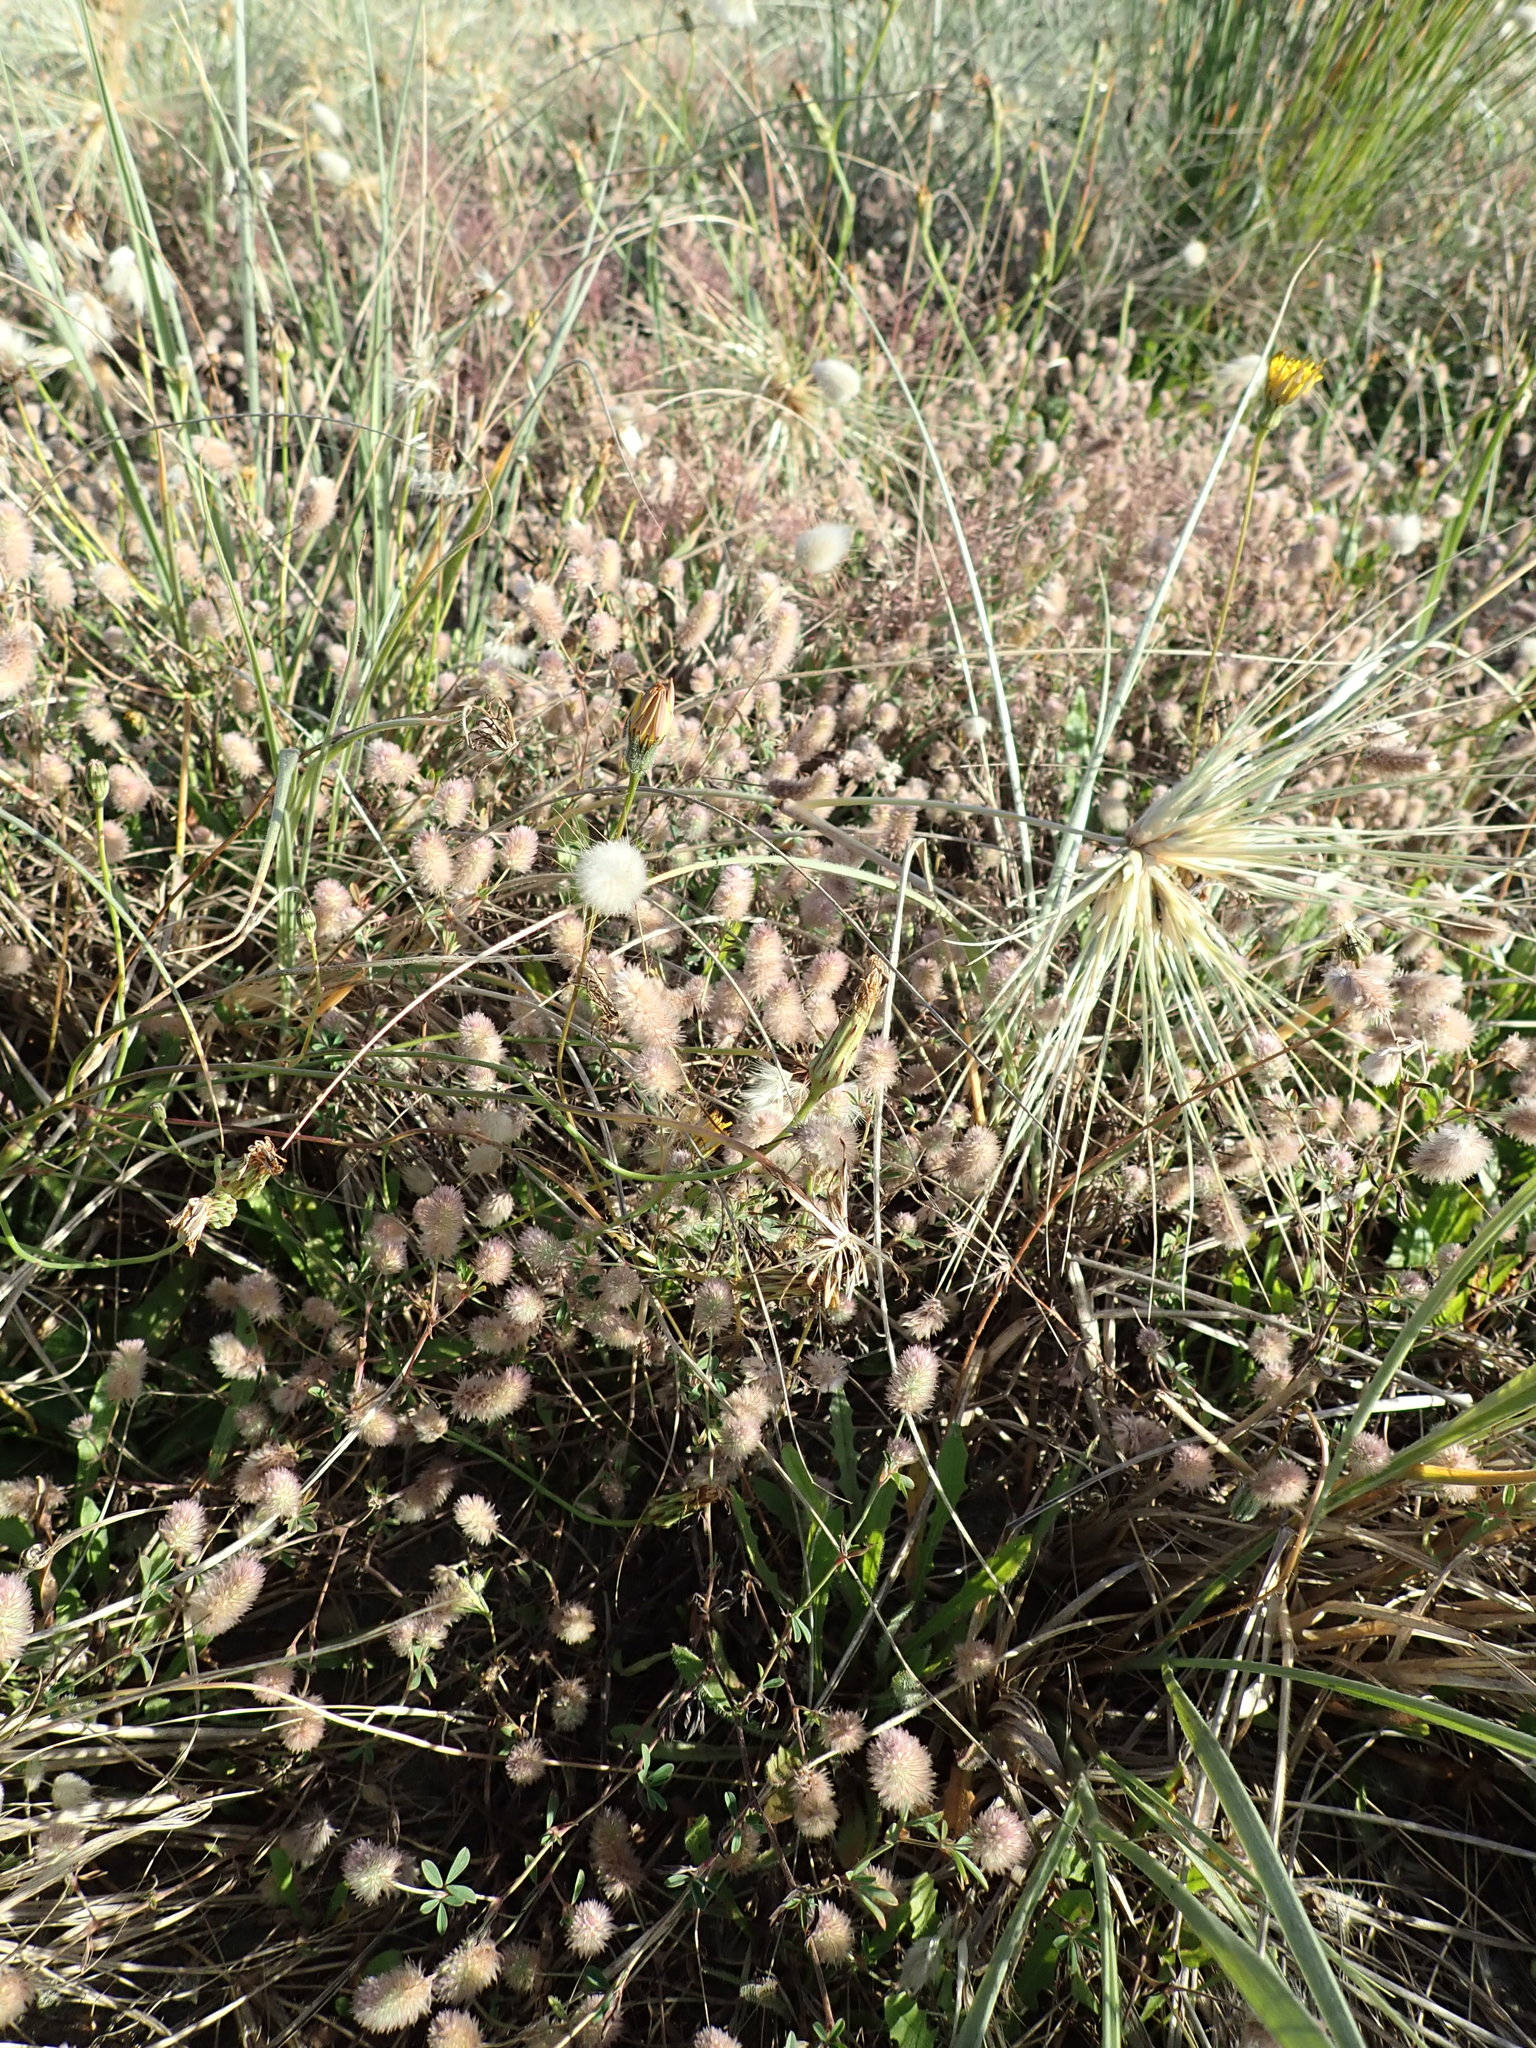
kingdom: Plantae
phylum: Tracheophyta
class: Magnoliopsida
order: Fabales
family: Fabaceae
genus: Trifolium
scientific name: Trifolium arvense
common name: Hare's-foot clover
